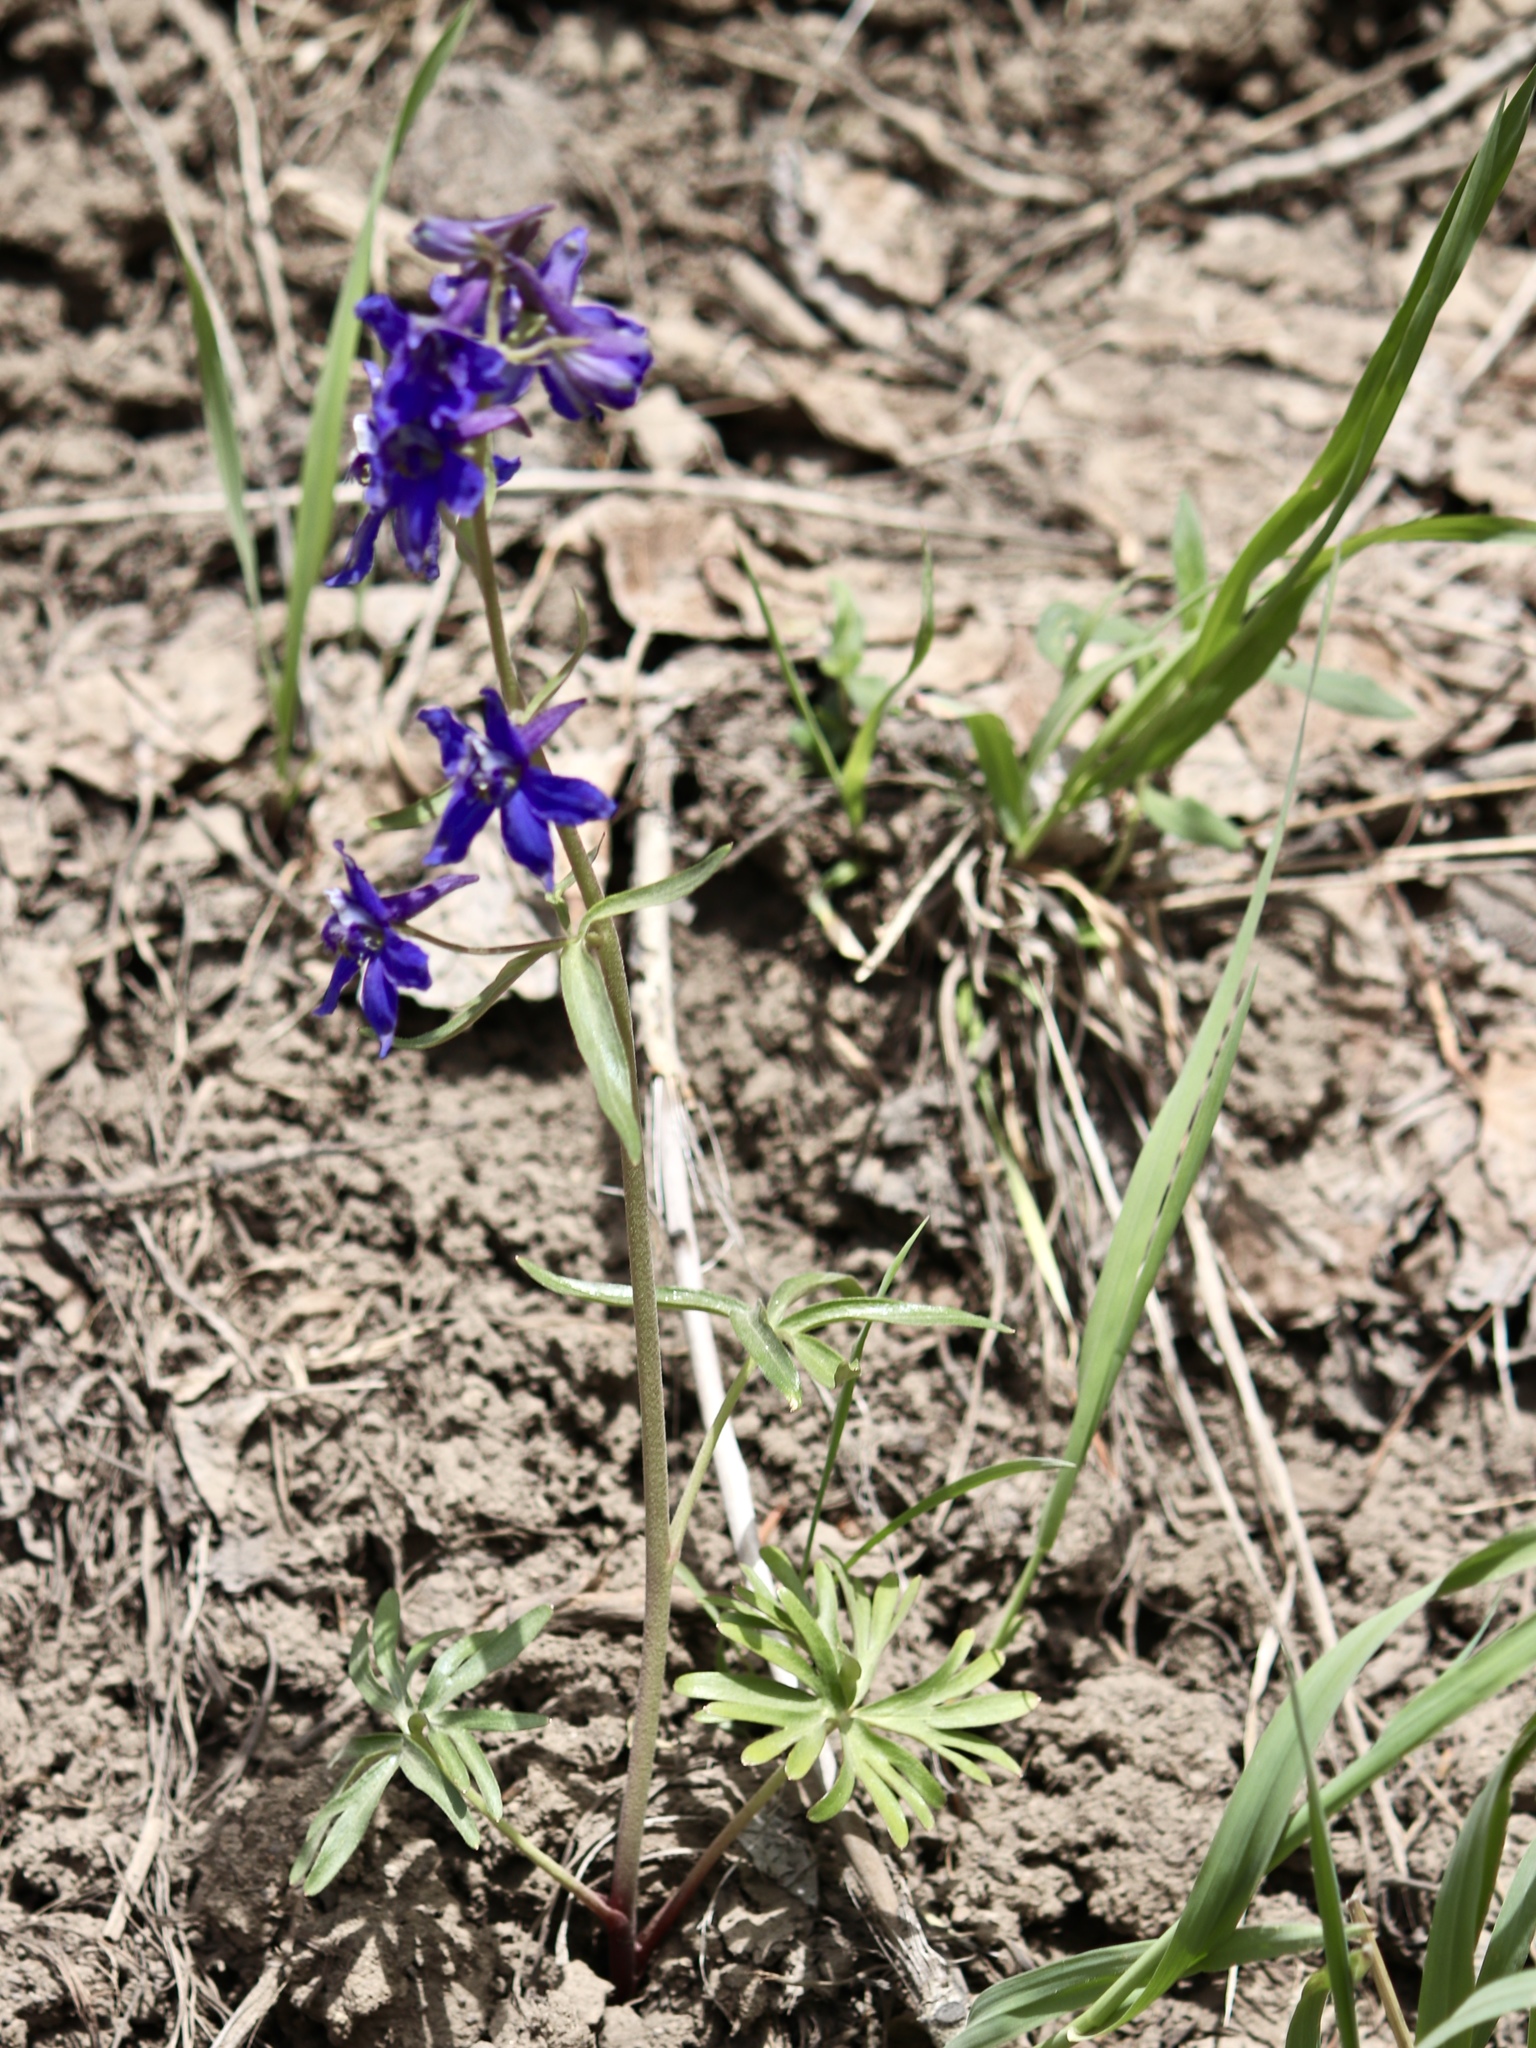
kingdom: Plantae
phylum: Tracheophyta
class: Magnoliopsida
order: Ranunculales
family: Ranunculaceae
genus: Delphinium
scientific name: Delphinium nuttallianum
